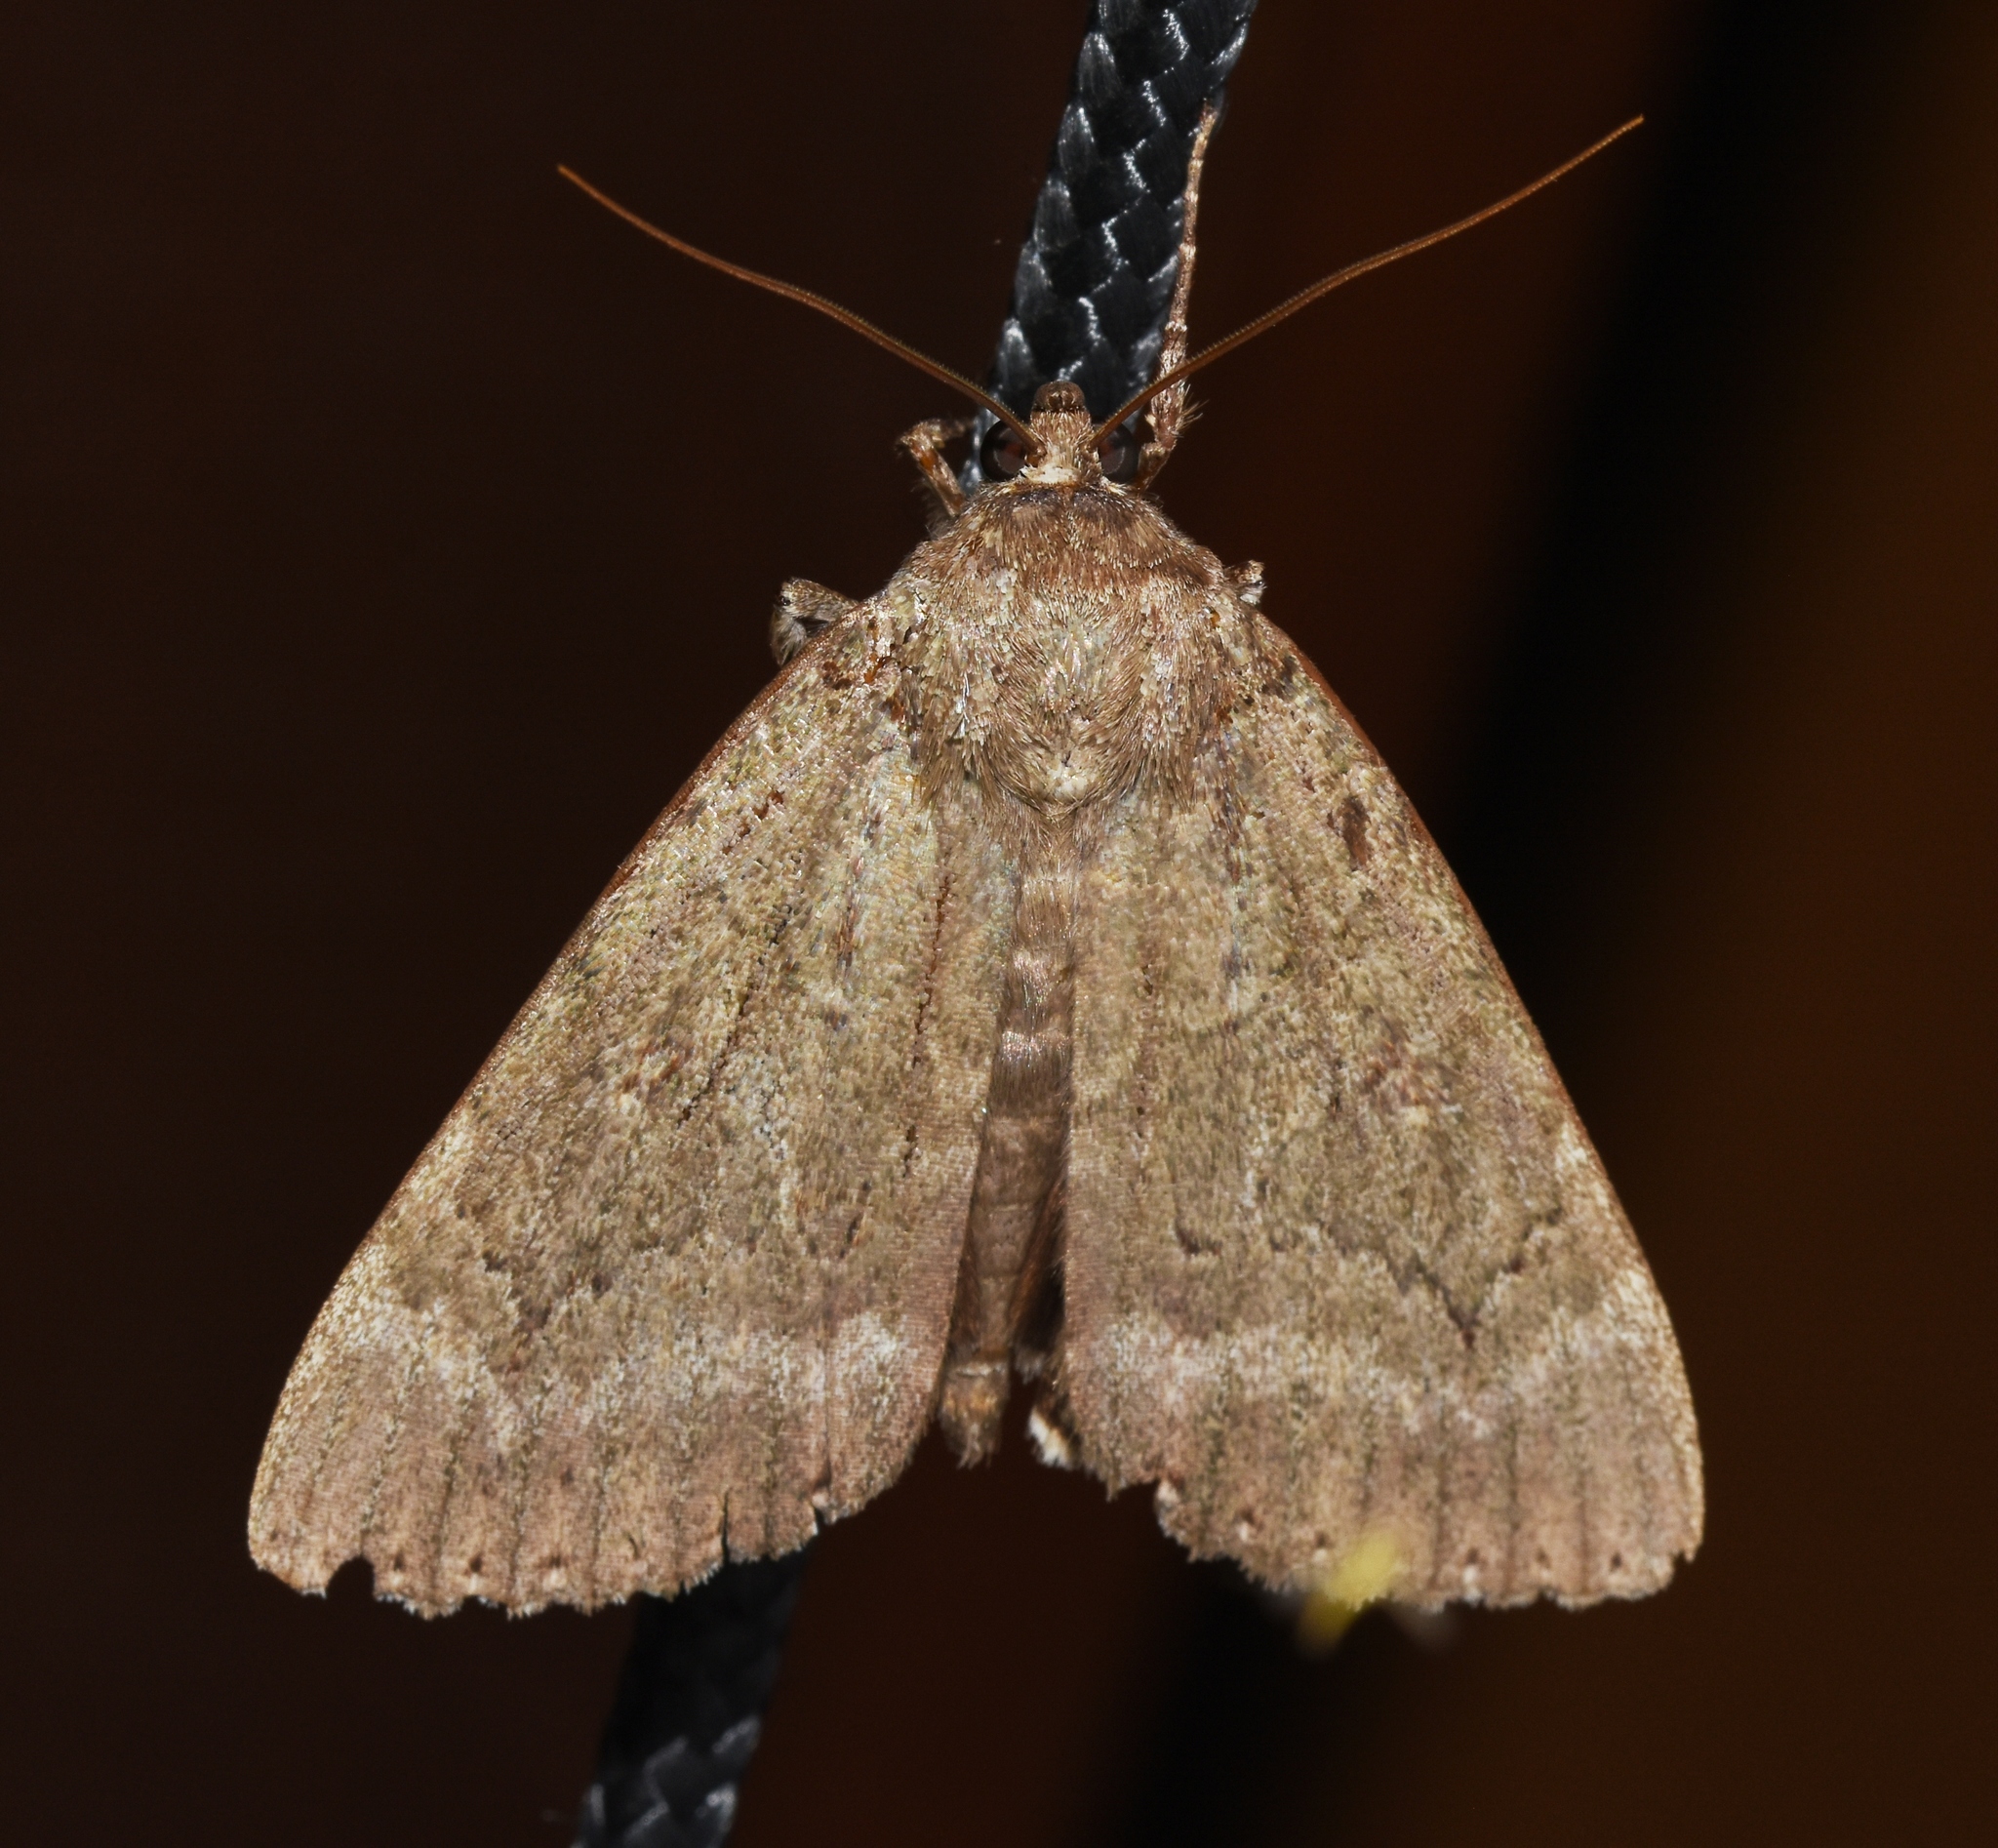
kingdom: Animalia
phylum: Arthropoda
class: Insecta
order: Lepidoptera
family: Erebidae
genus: Catocala
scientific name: Catocala obscura
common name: Obscure underwing moth
